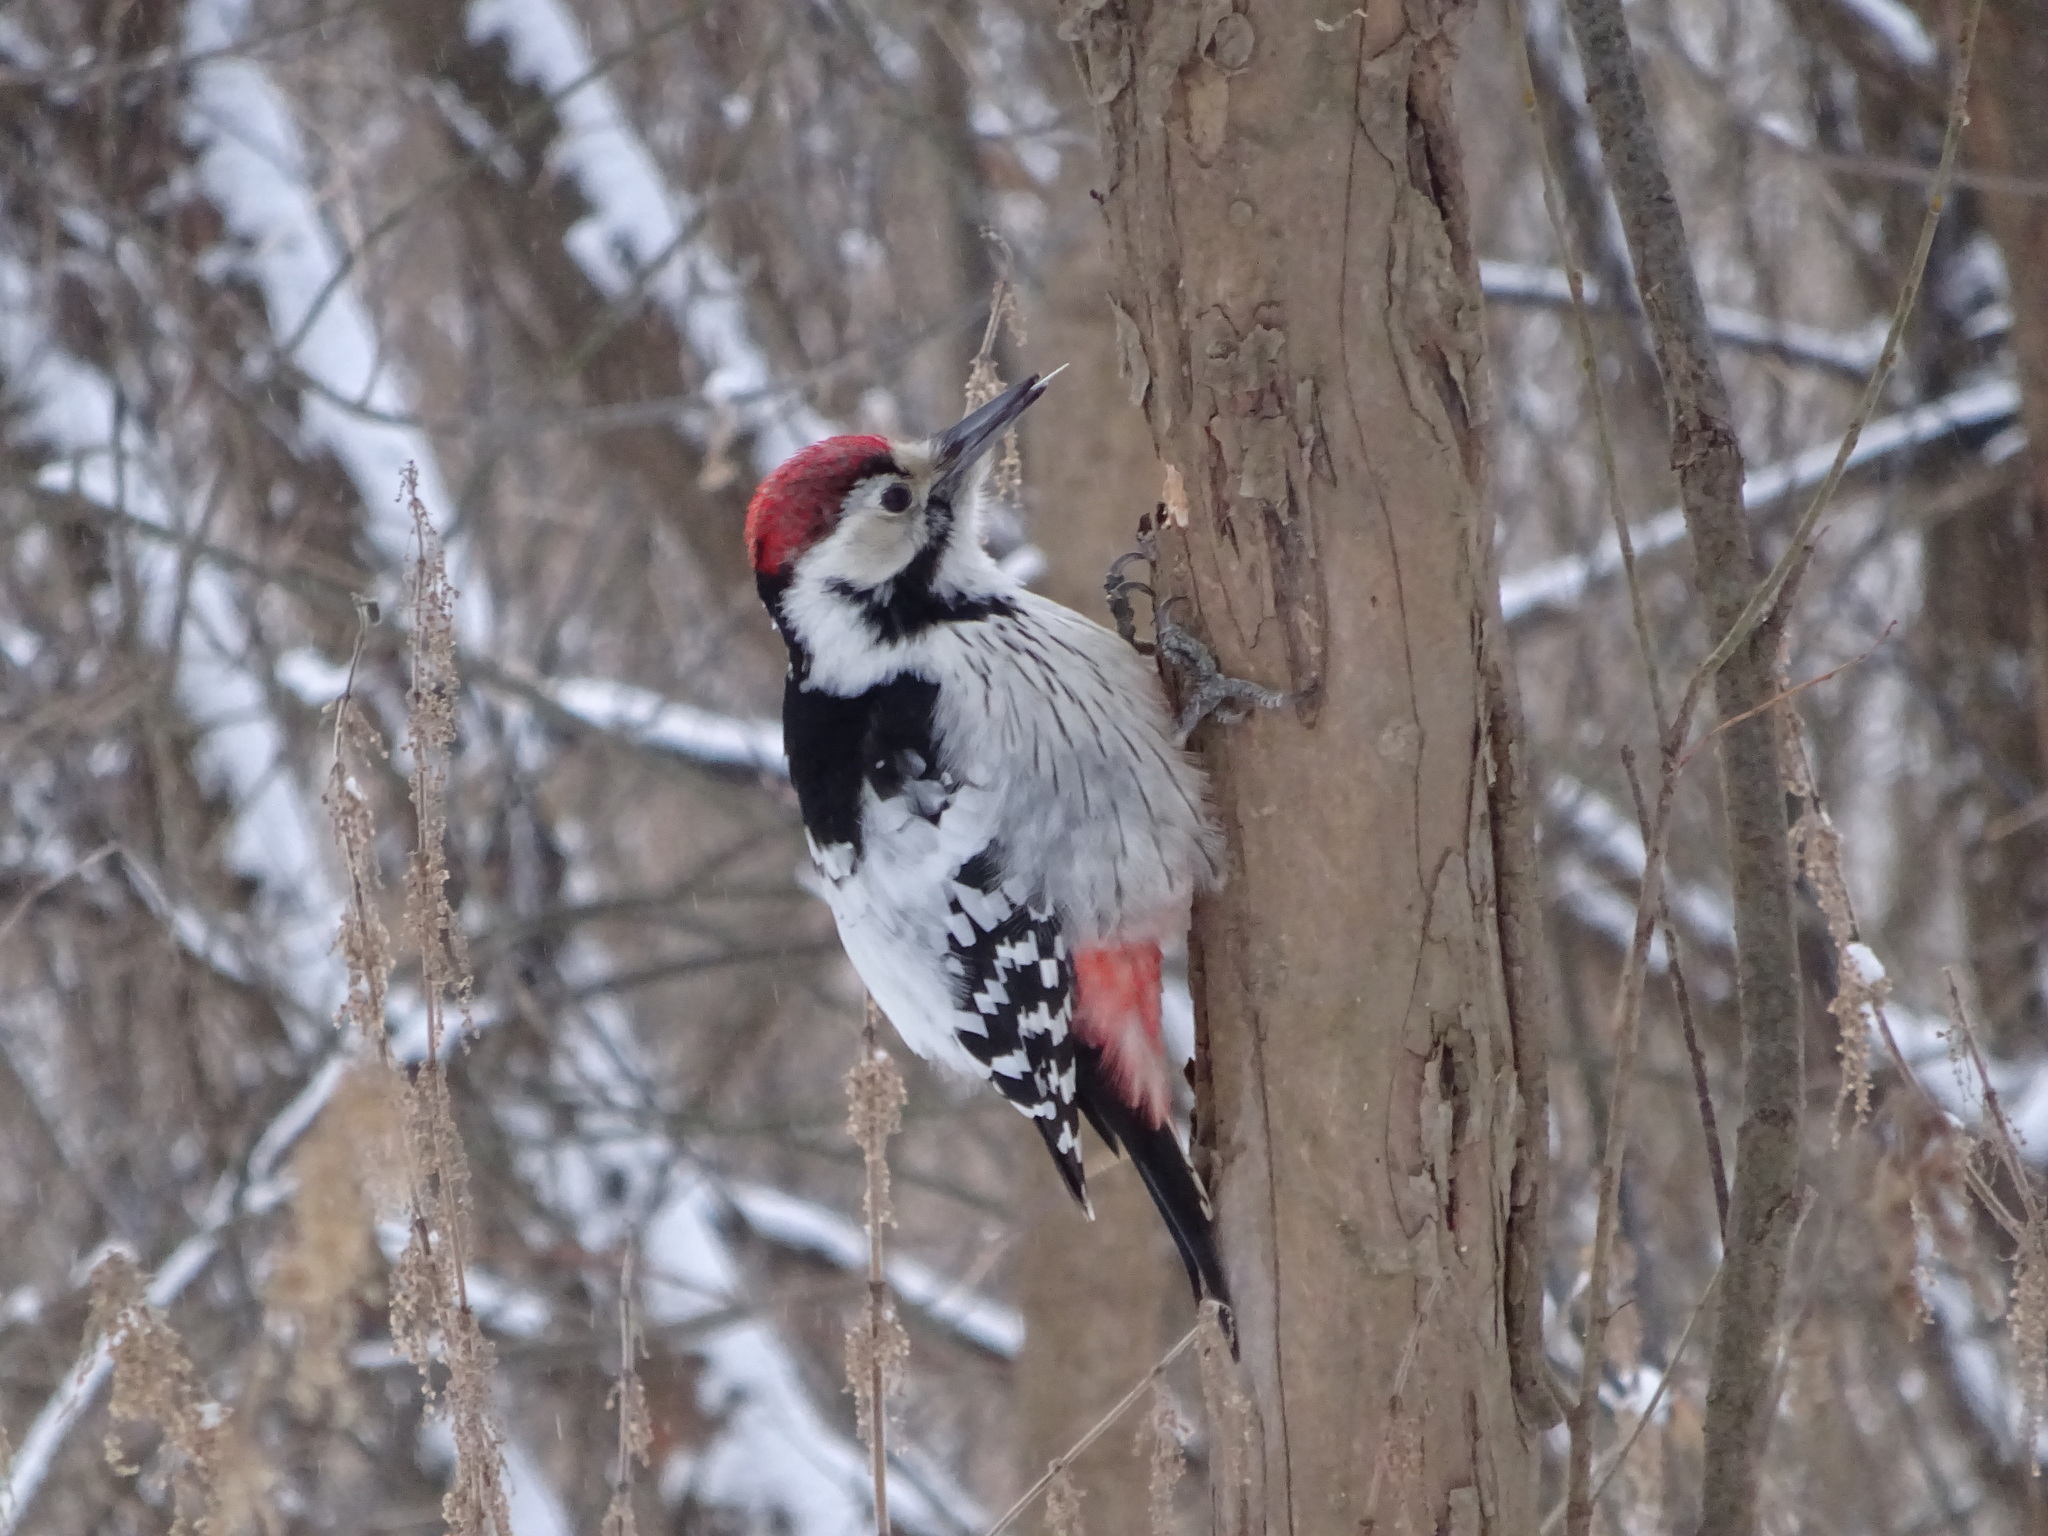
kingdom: Animalia
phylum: Chordata
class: Aves
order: Piciformes
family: Picidae
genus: Dendrocopos
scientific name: Dendrocopos leucotos
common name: White-backed woodpecker
